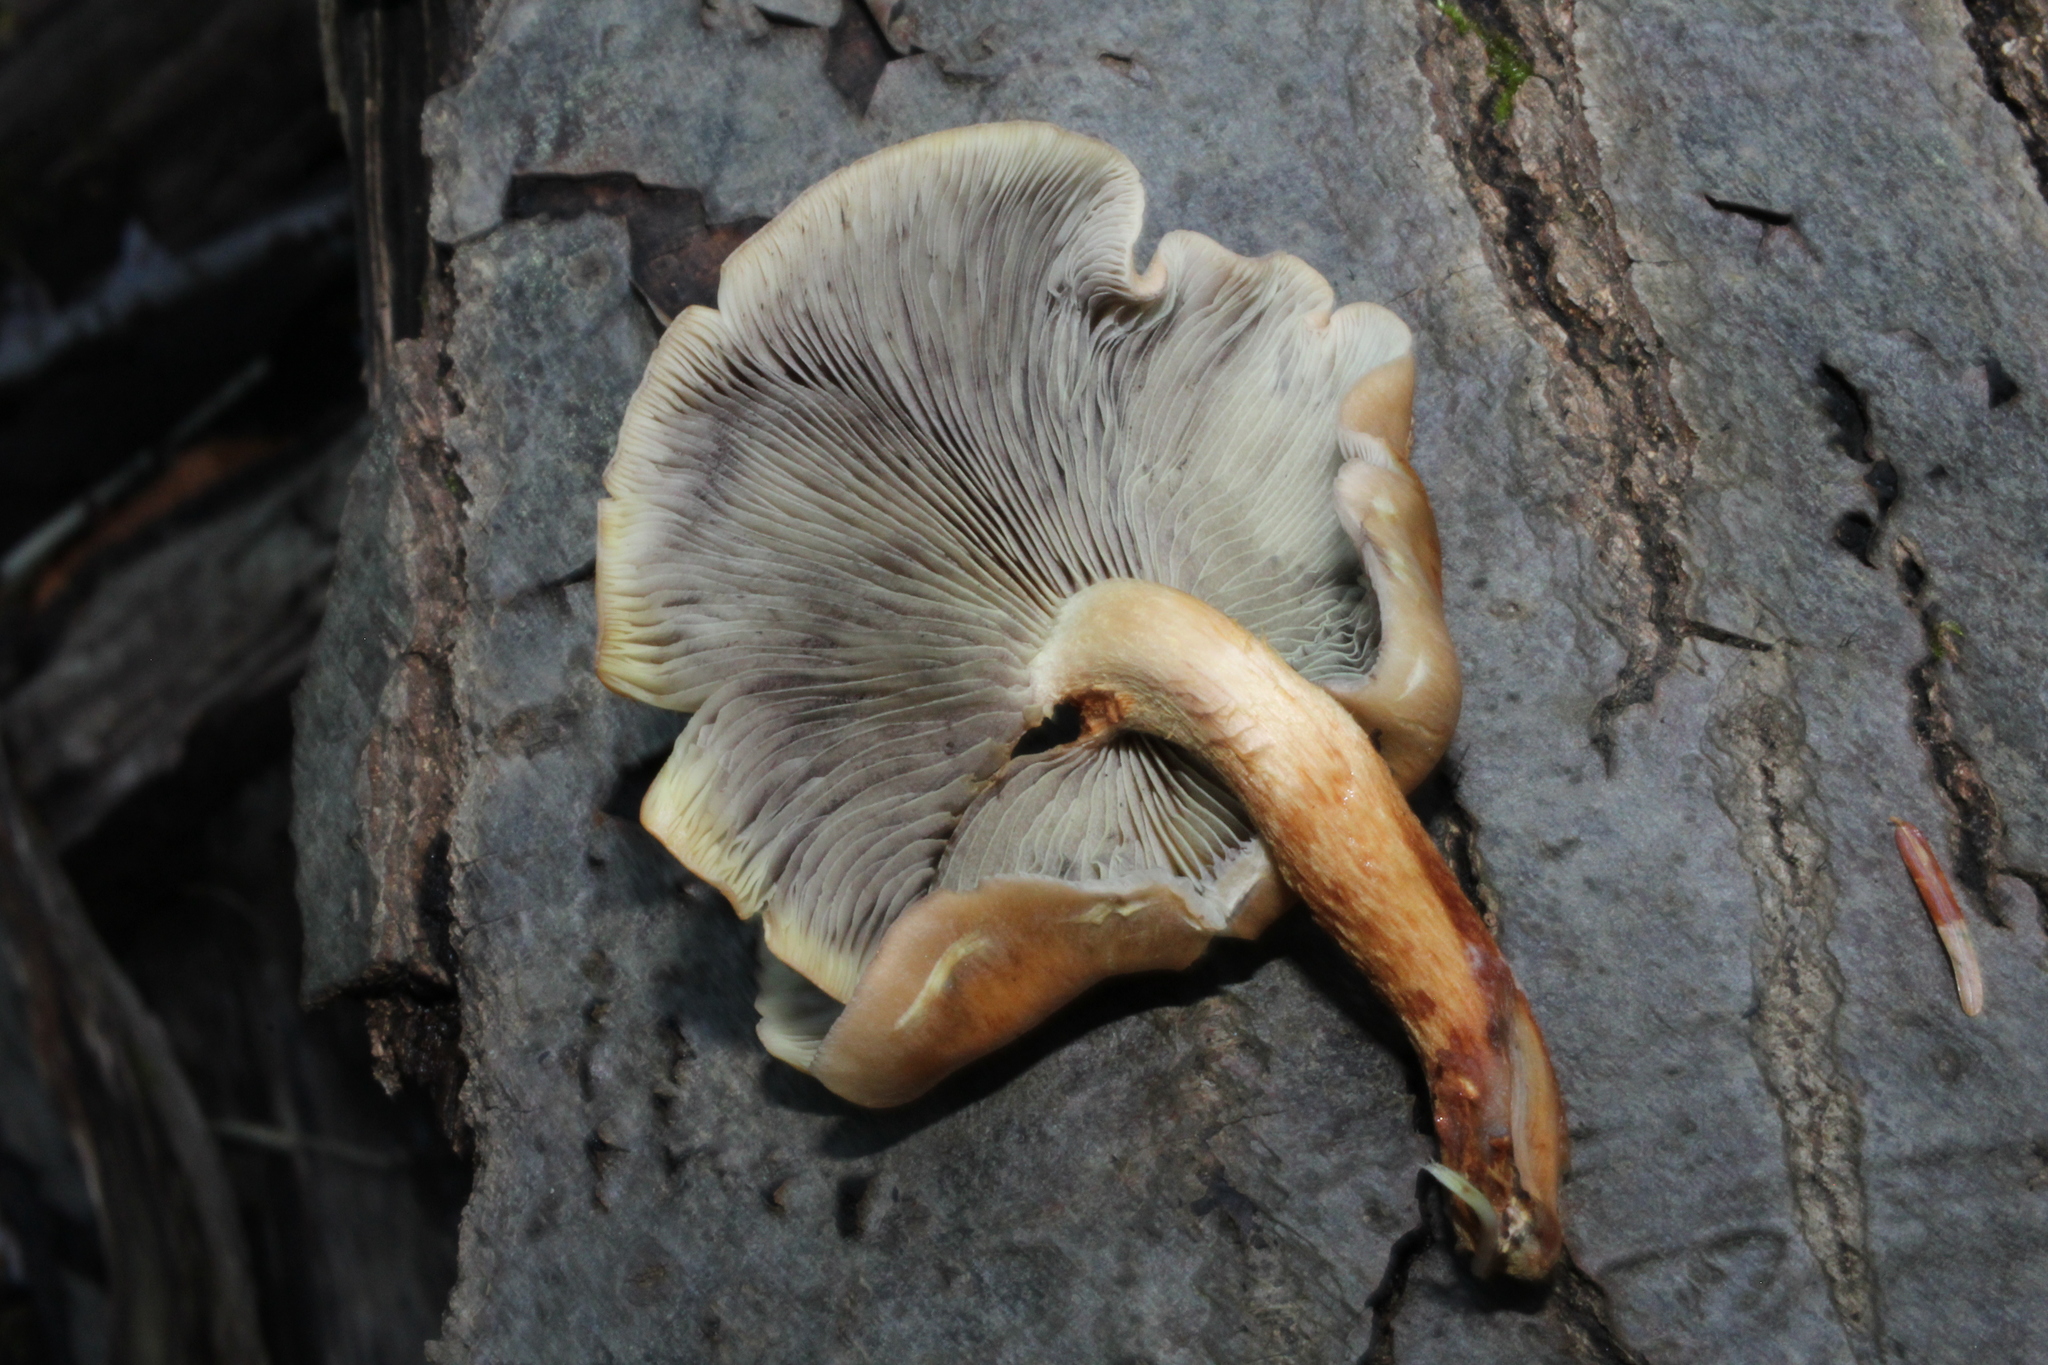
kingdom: Fungi
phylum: Basidiomycota
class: Agaricomycetes
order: Agaricales
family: Strophariaceae
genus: Hypholoma
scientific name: Hypholoma lateritium
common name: Brick caps
